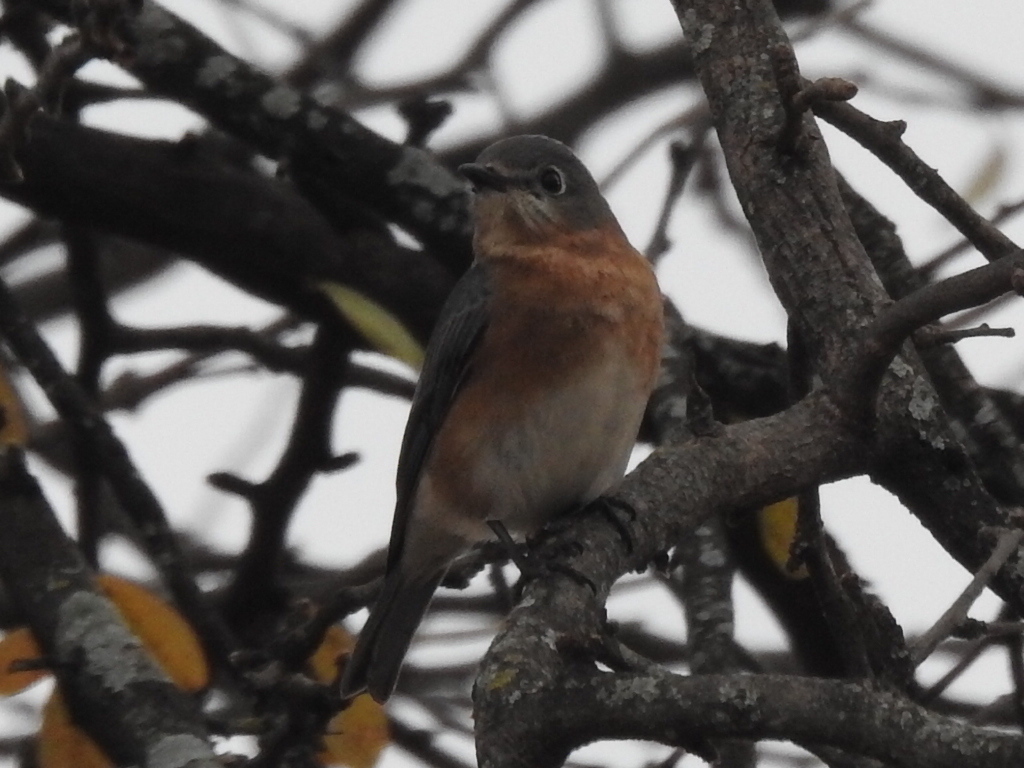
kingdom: Animalia
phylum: Chordata
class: Aves
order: Passeriformes
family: Turdidae
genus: Sialia
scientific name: Sialia sialis
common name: Eastern bluebird
